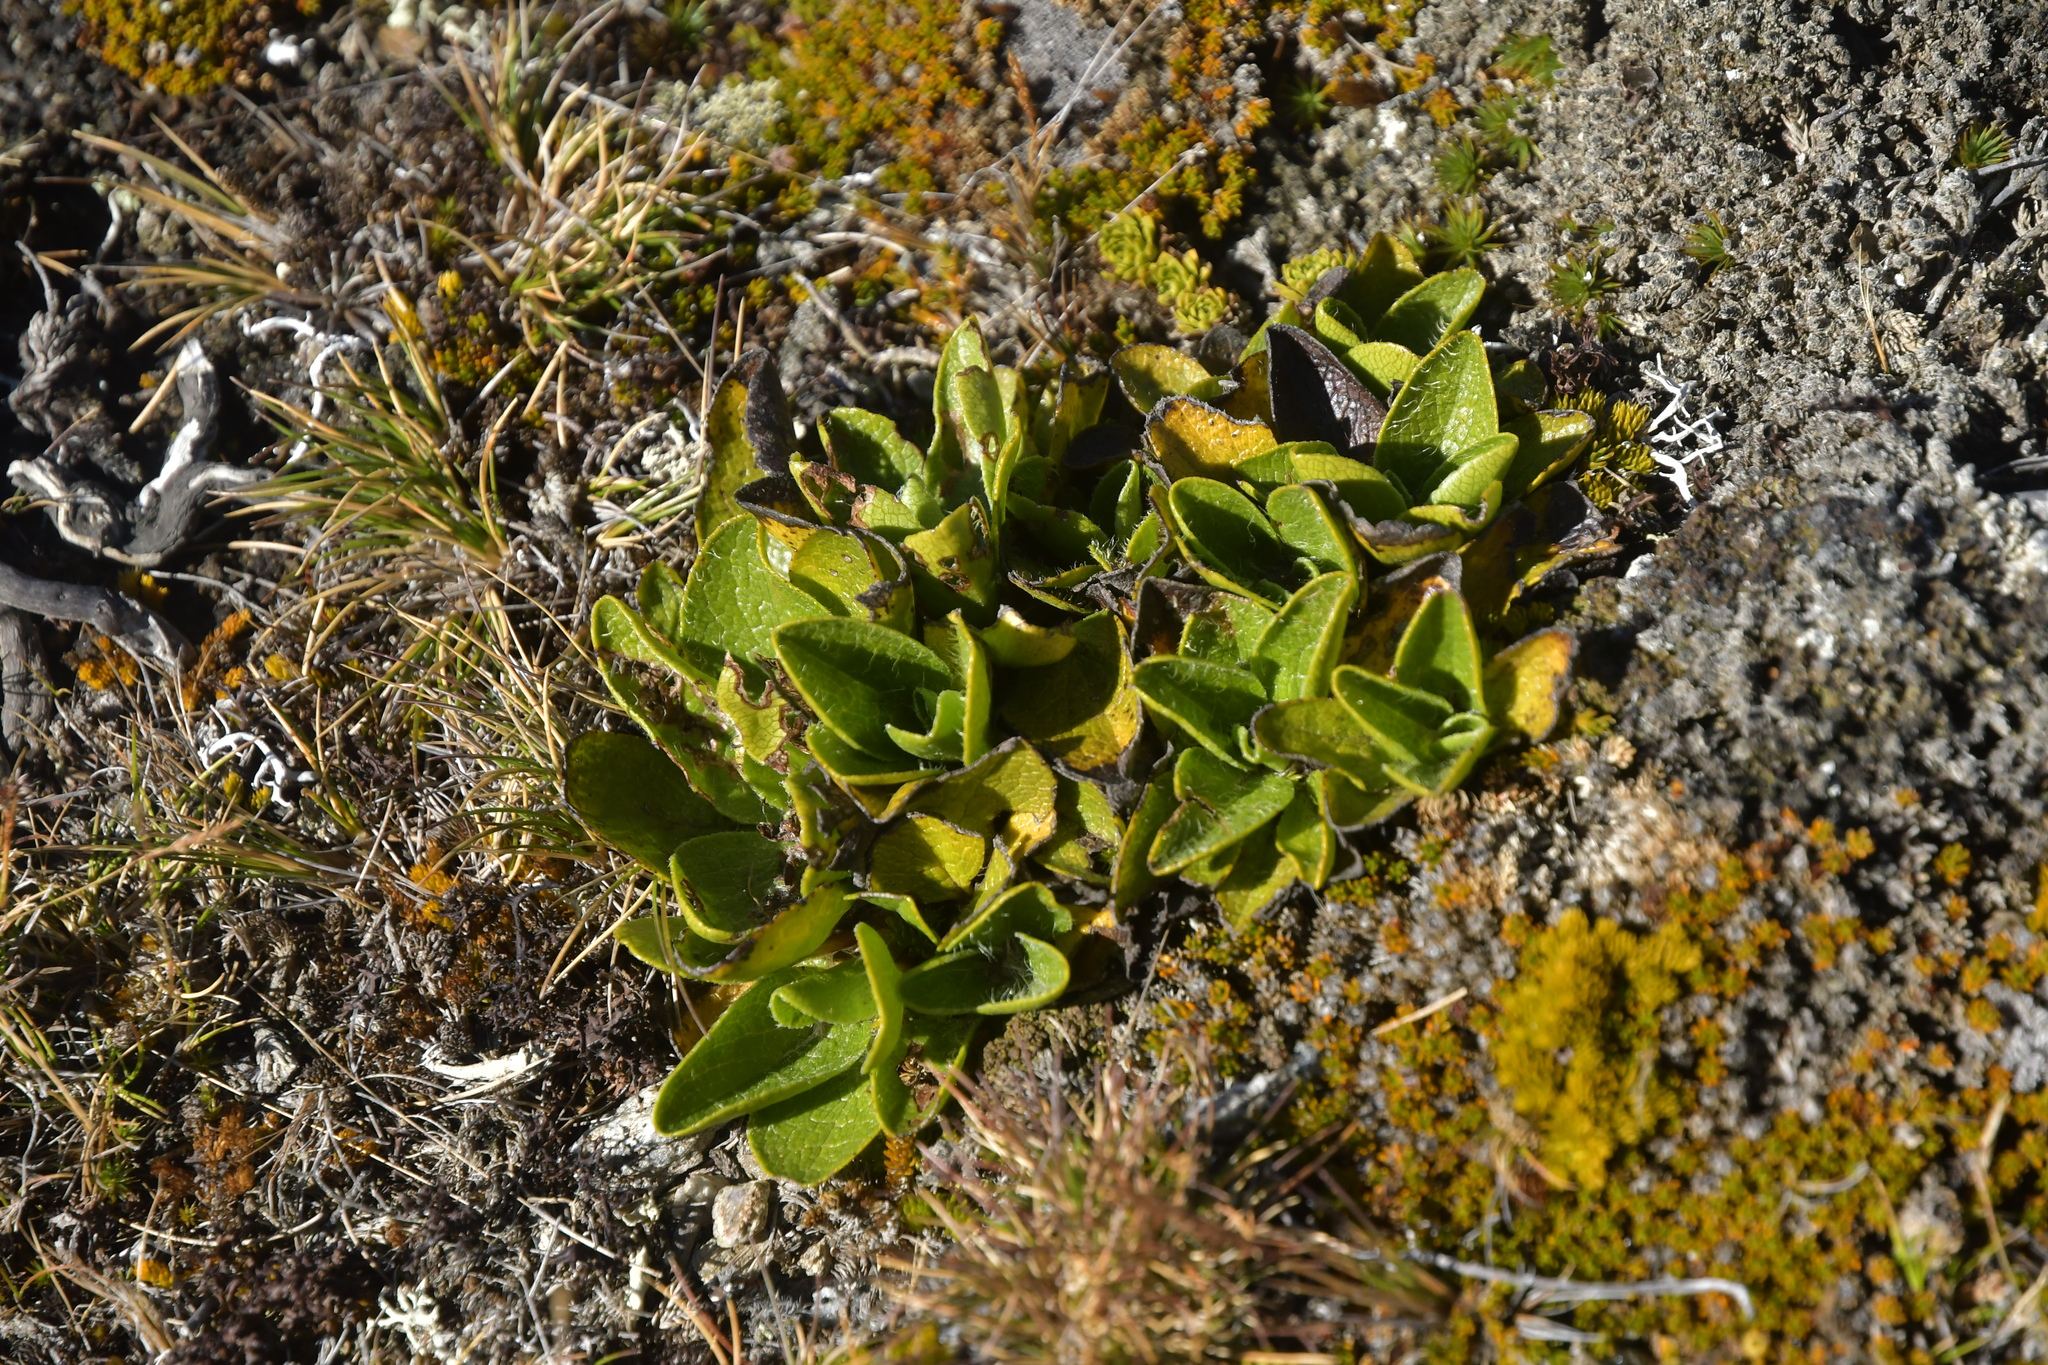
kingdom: Plantae
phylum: Tracheophyta
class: Magnoliopsida
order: Asterales
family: Asteraceae
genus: Brachyglottis
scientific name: Brachyglottis bellidioides
